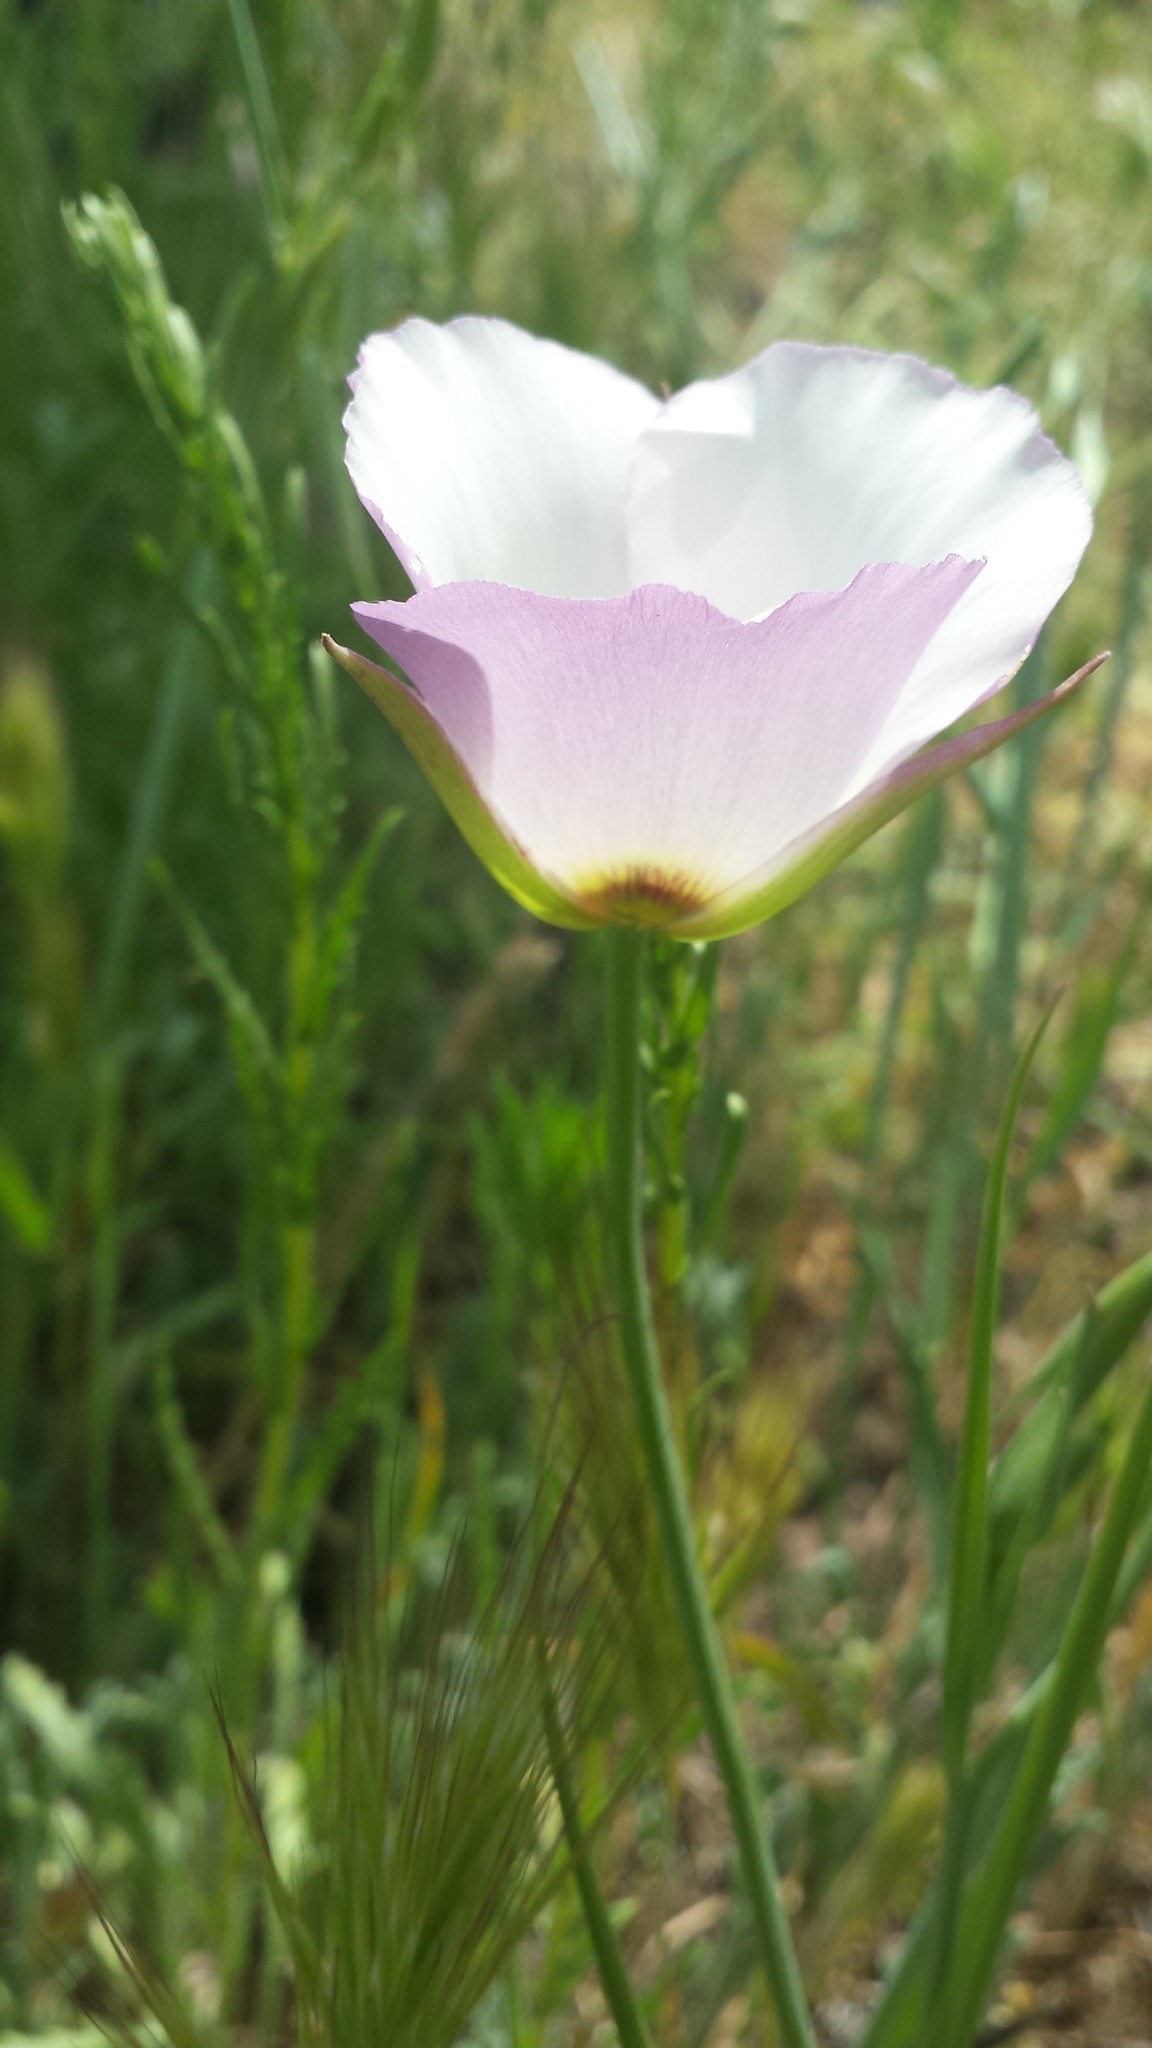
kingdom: Plantae
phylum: Tracheophyta
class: Liliopsida
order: Liliales
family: Liliaceae
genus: Calochortus
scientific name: Calochortus catalinae
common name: Catalina mariposa-lily
